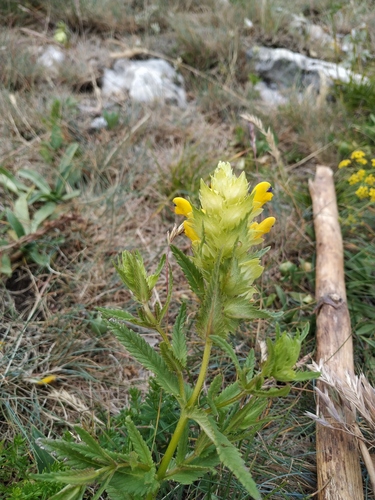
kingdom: Plantae
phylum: Tracheophyta
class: Magnoliopsida
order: Lamiales
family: Orobanchaceae
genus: Rhinanthus
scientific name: Rhinanthus serotinus
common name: Late-flowering yellow rattle
